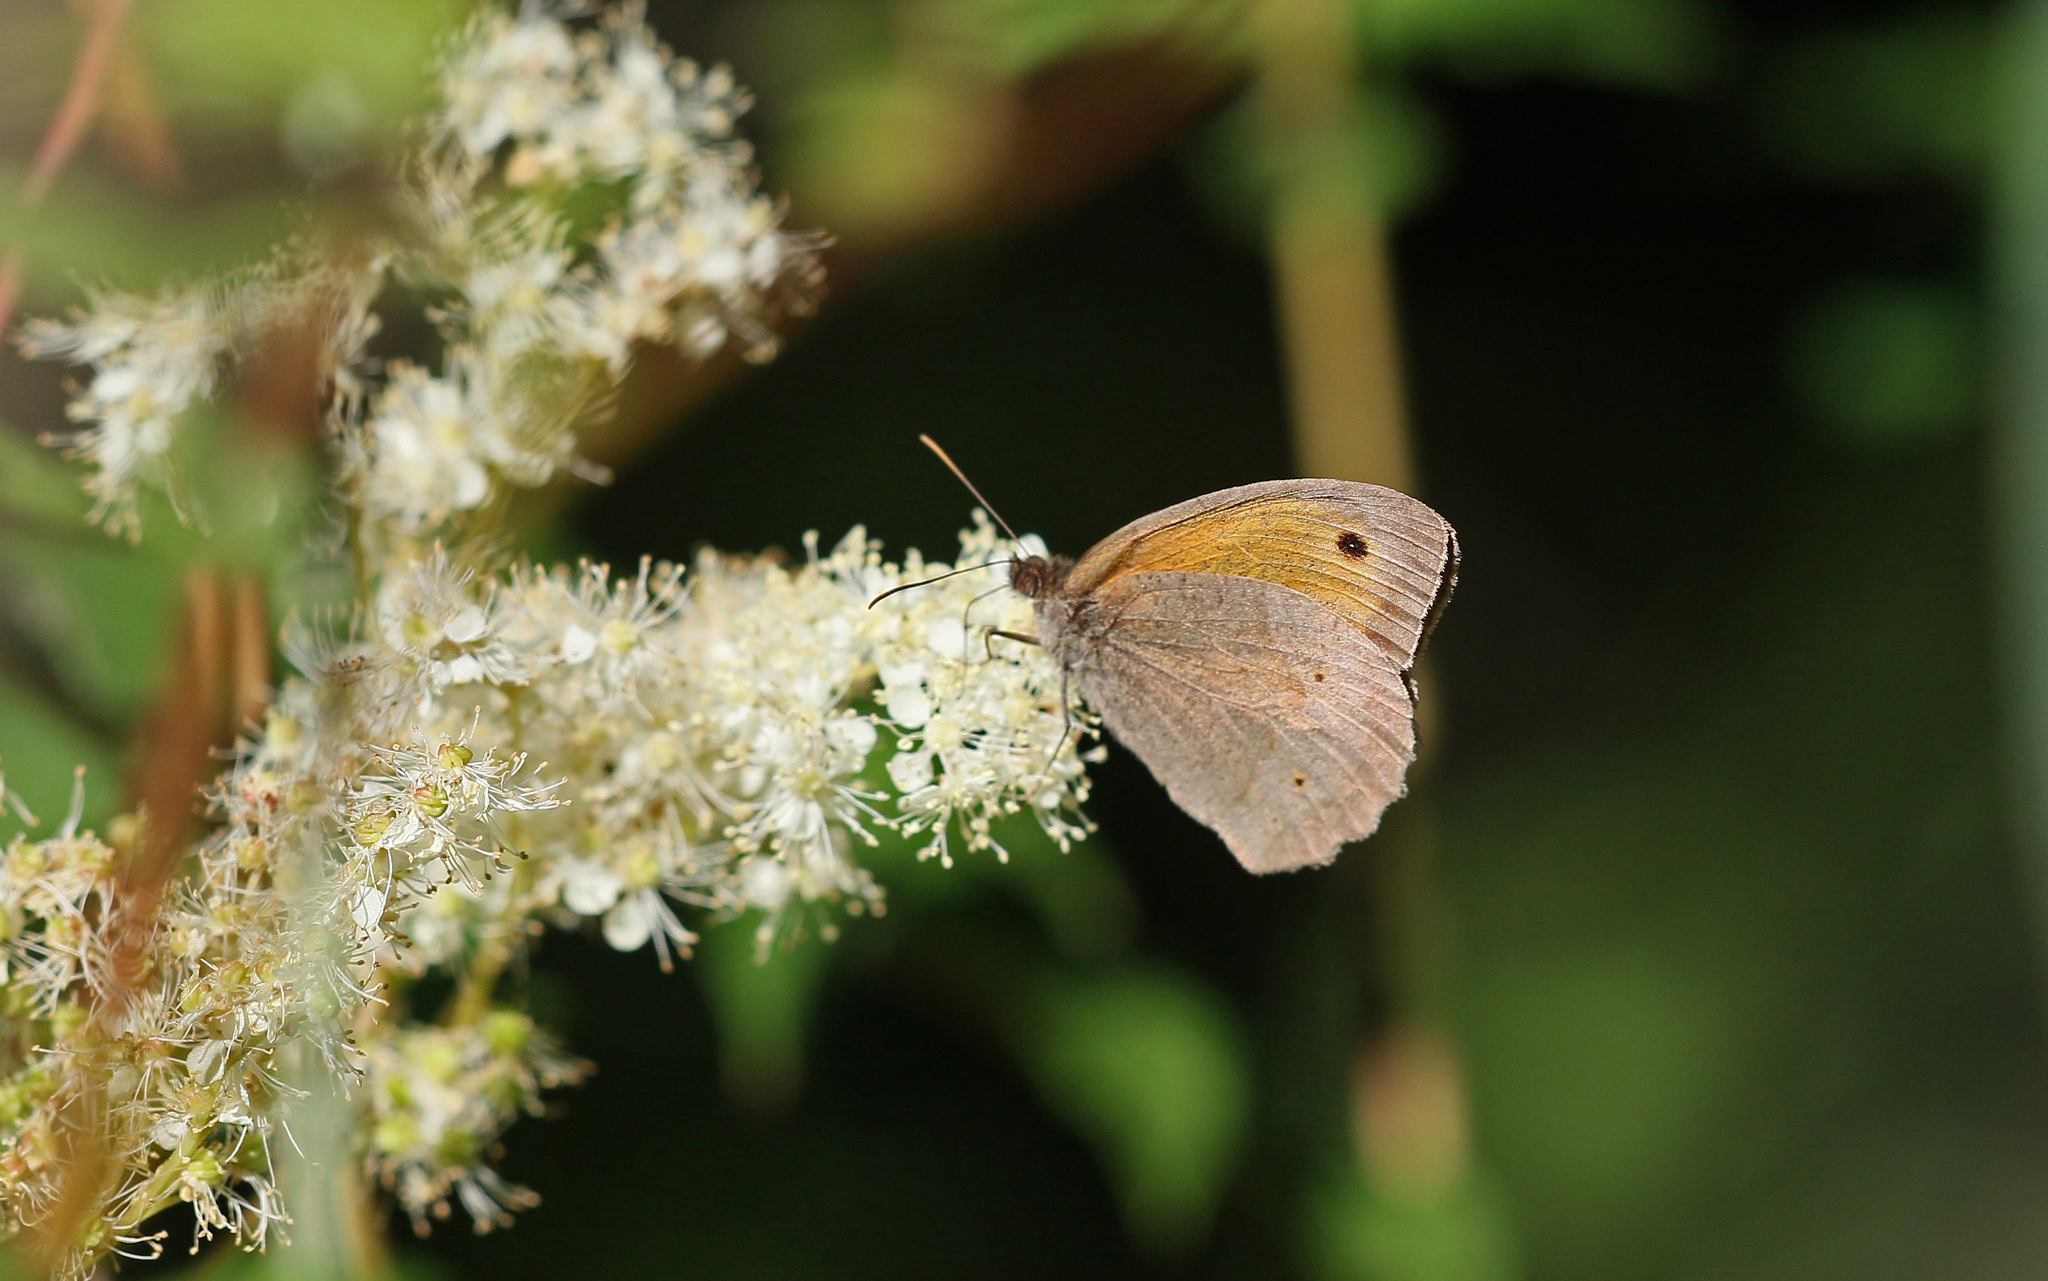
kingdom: Animalia
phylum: Arthropoda
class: Insecta
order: Lepidoptera
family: Nymphalidae
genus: Maniola
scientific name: Maniola jurtina
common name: Meadow brown
